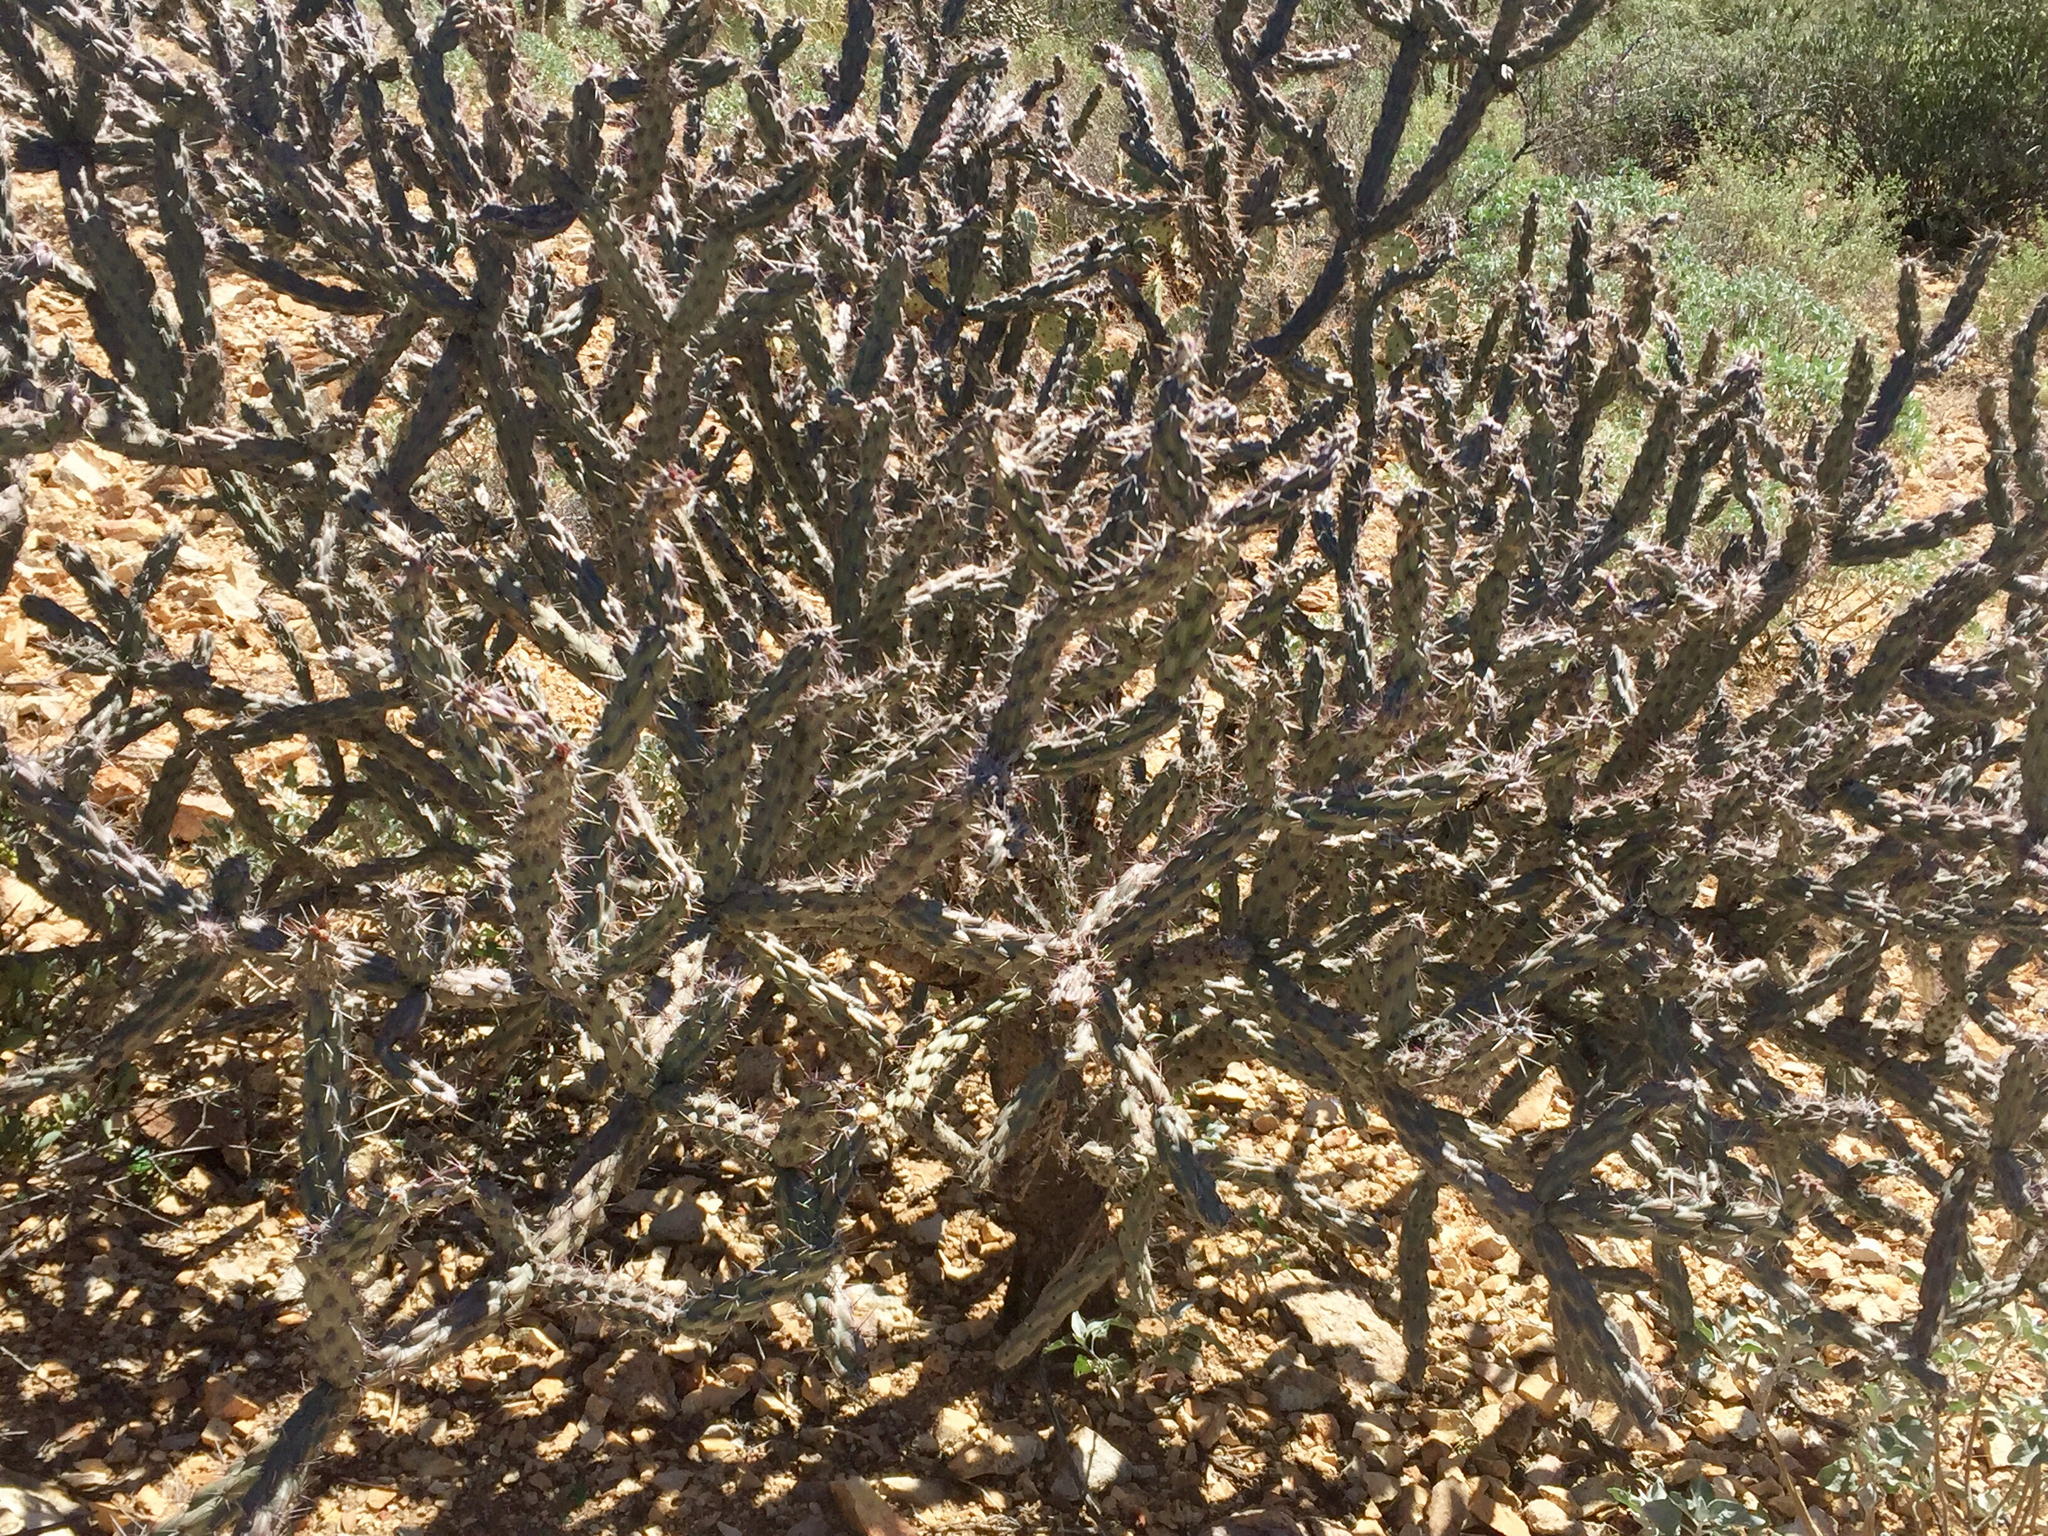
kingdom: Plantae
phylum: Tracheophyta
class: Magnoliopsida
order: Caryophyllales
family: Cactaceae
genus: Cylindropuntia
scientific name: Cylindropuntia acanthocarpa
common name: Buckhorn cholla
